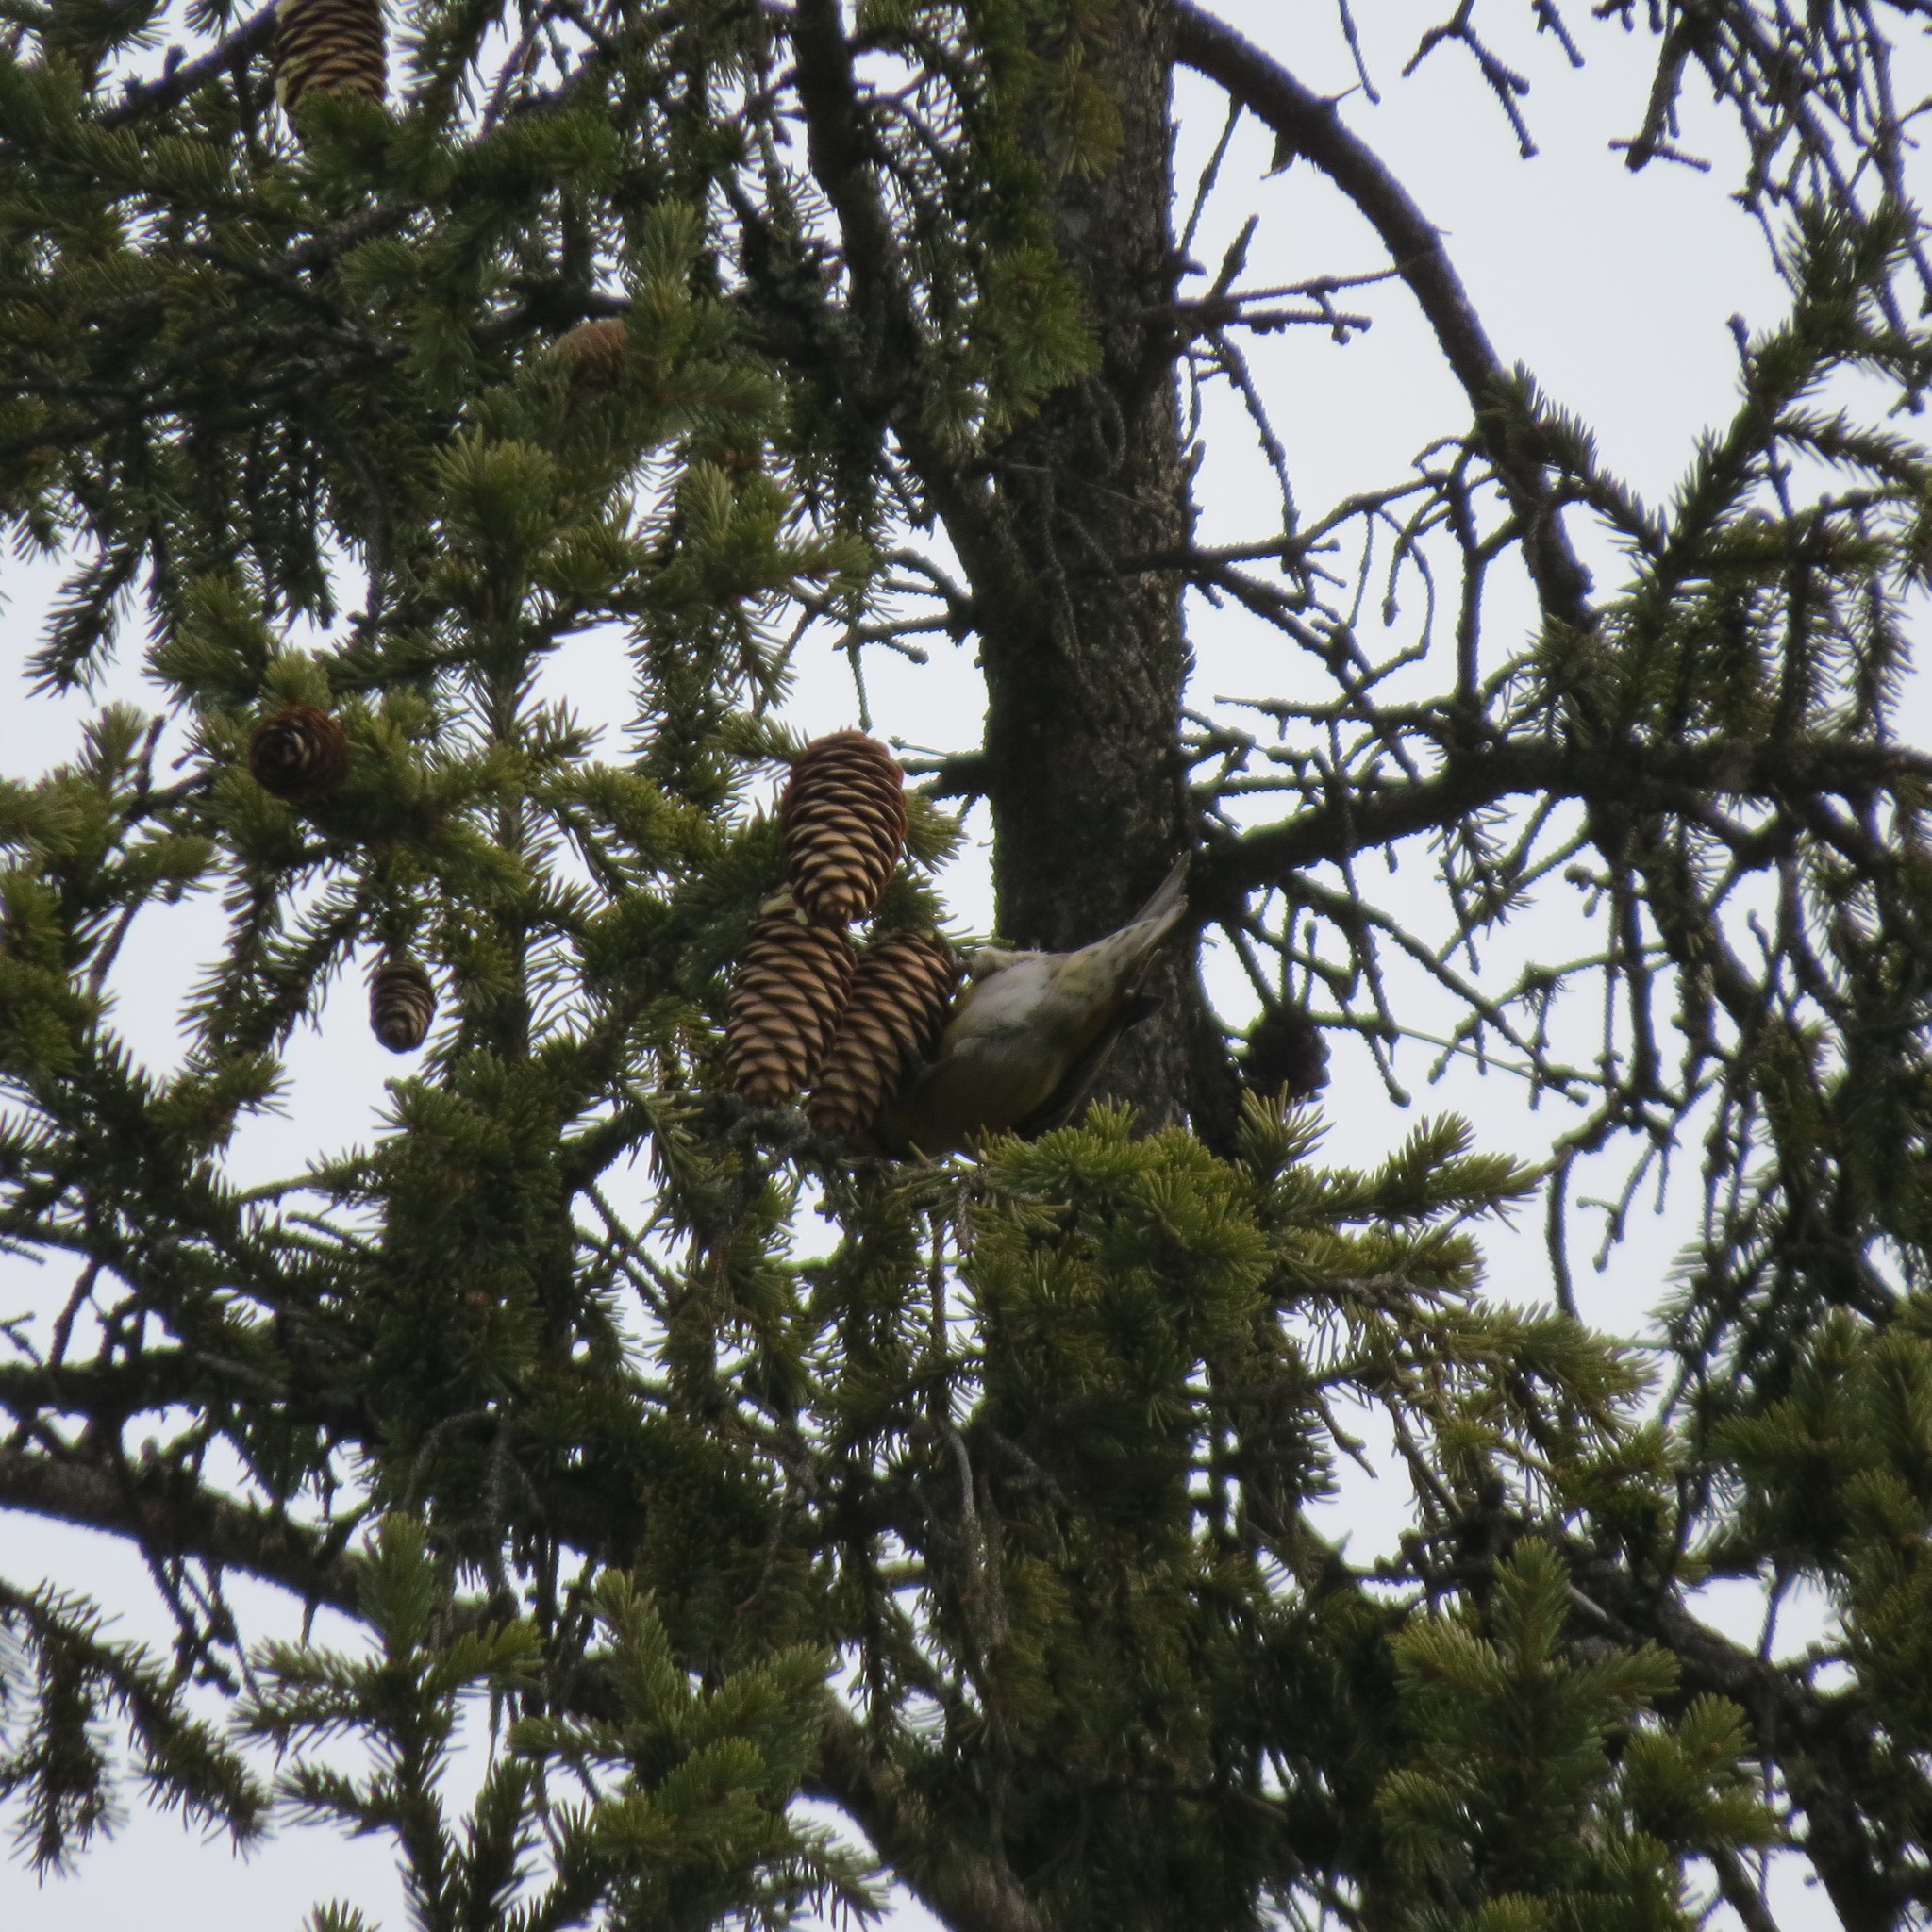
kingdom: Animalia
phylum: Chordata
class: Aves
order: Passeriformes
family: Fringillidae
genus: Loxia
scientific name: Loxia curvirostra
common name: Red crossbill
